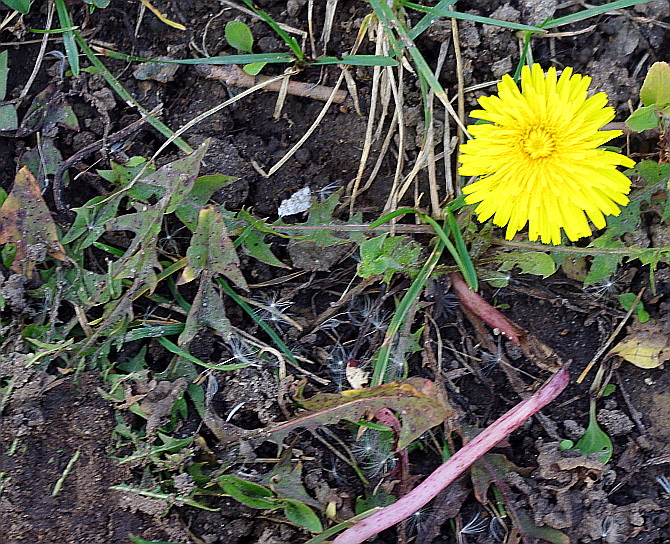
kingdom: Plantae
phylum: Tracheophyta
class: Magnoliopsida
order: Asterales
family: Asteraceae
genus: Taraxacum
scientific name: Taraxacum officinale
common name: Common dandelion
